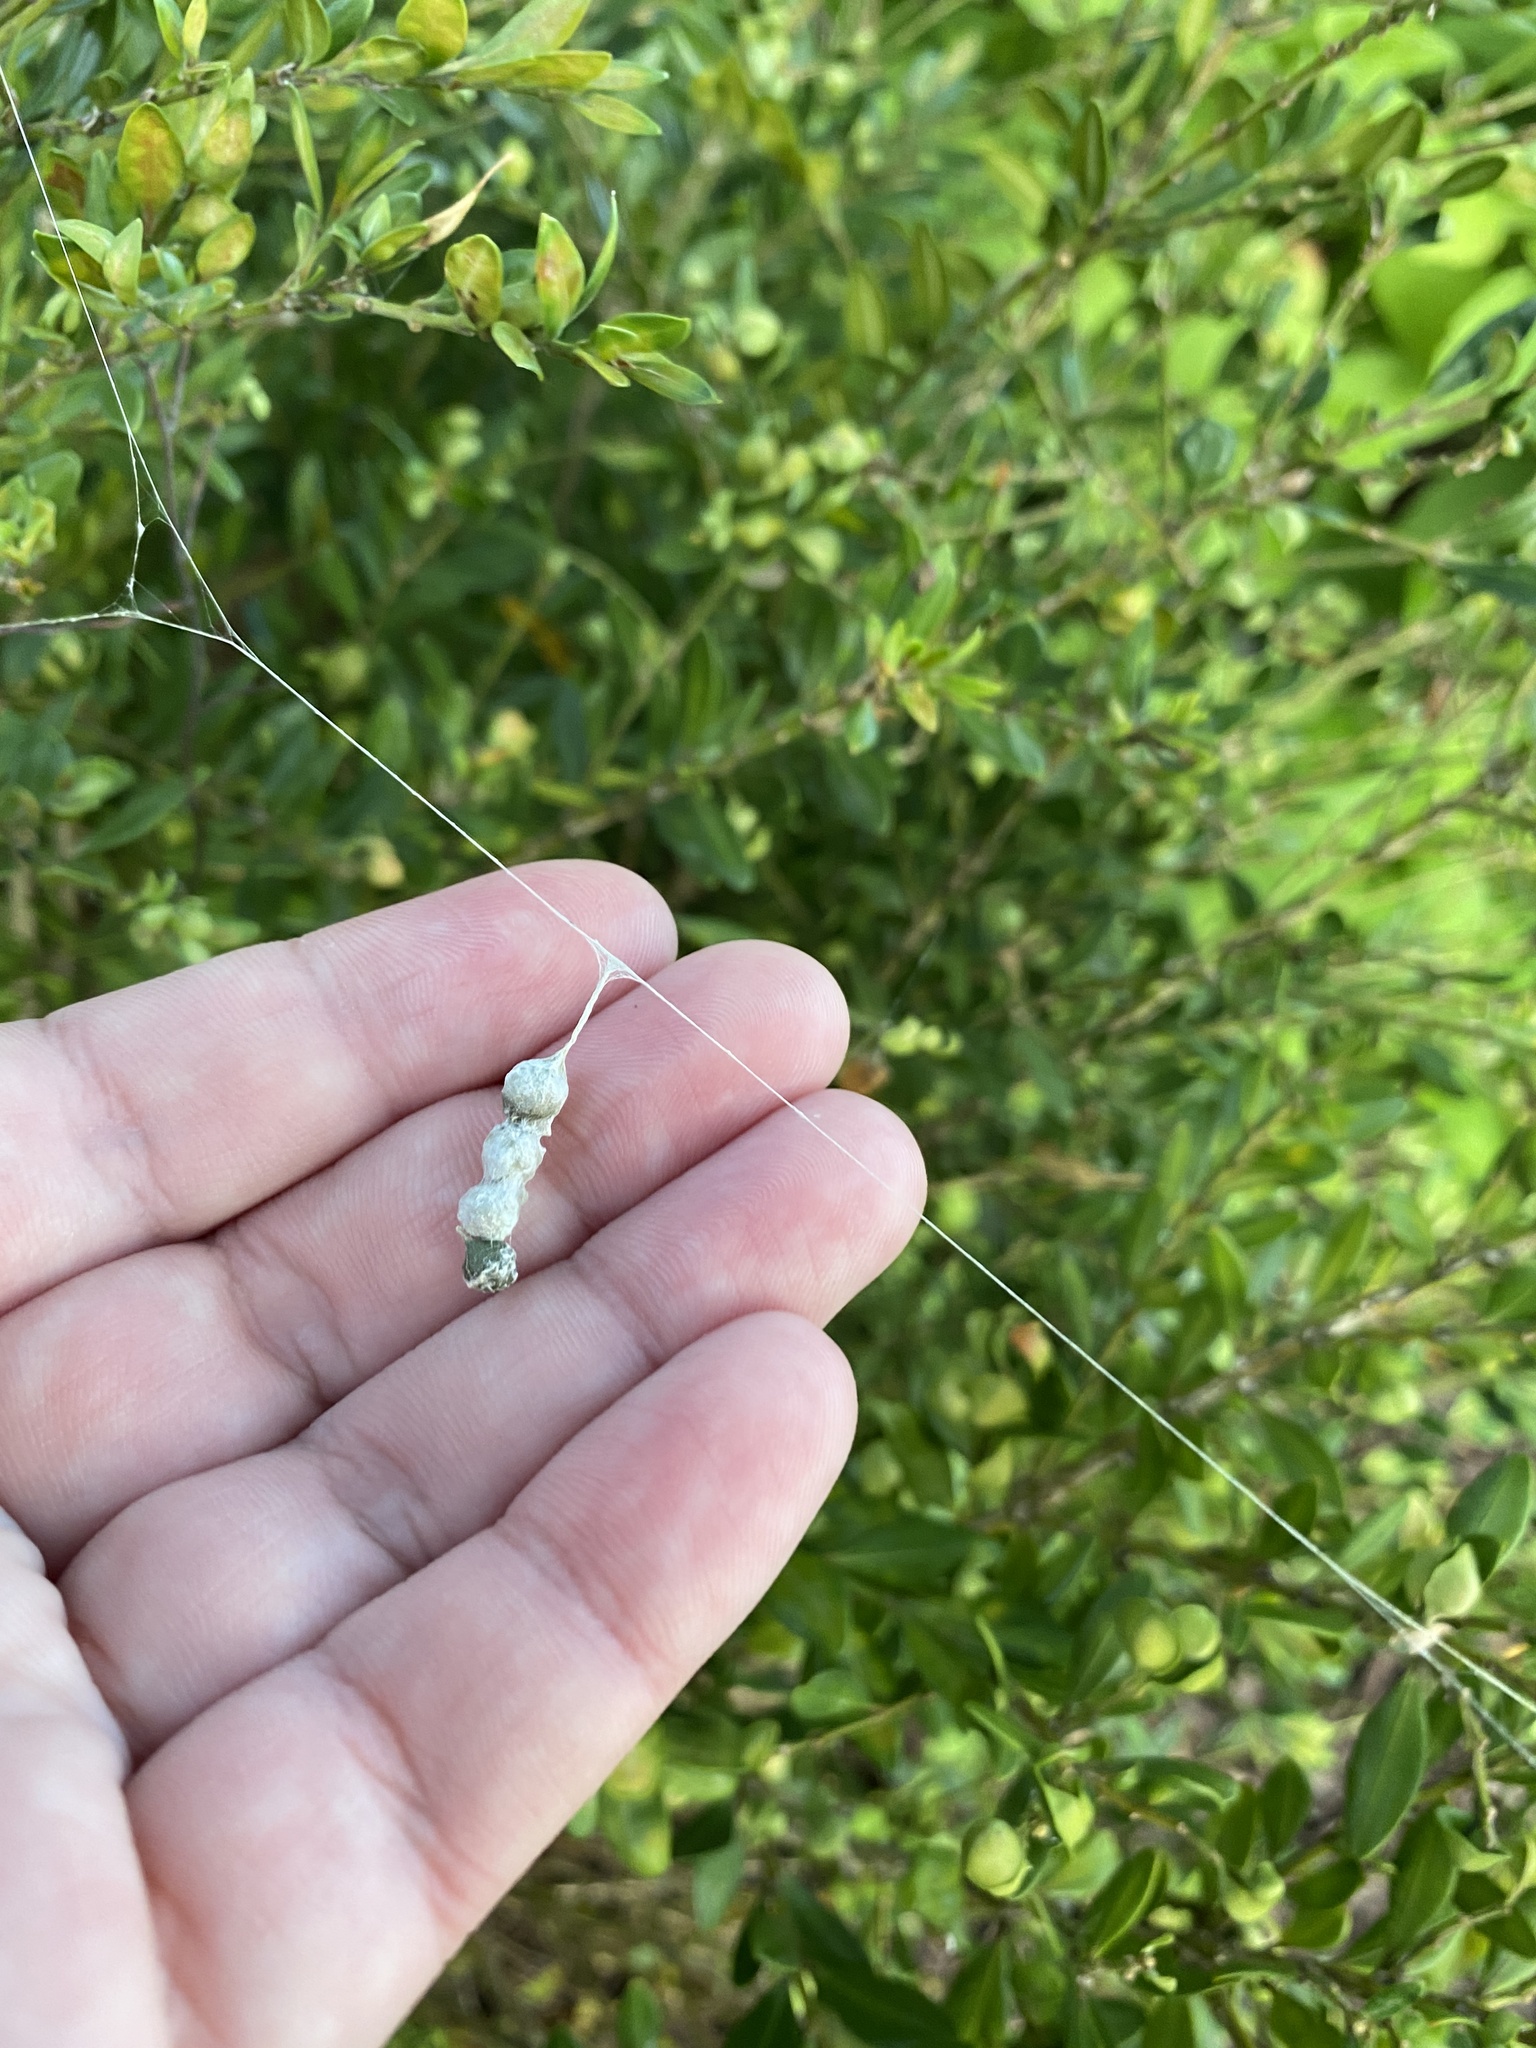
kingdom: Animalia
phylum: Arthropoda
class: Arachnida
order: Araneae
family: Araneidae
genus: Mecynogea
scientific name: Mecynogea lemniscata
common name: Orb weavers
